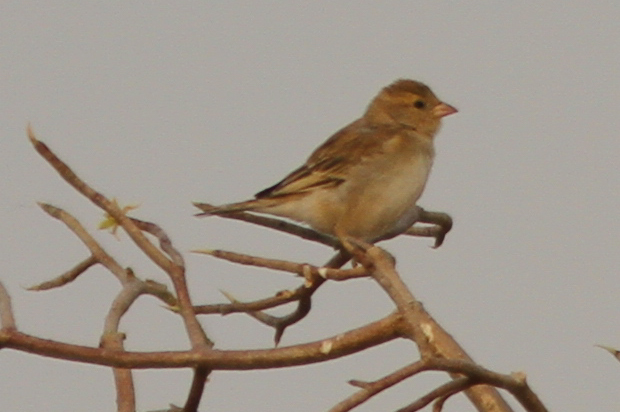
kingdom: Animalia
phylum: Chordata
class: Aves
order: Passeriformes
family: Passeridae
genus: Passer
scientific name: Passer luteus
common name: Sudan golden sparrow
